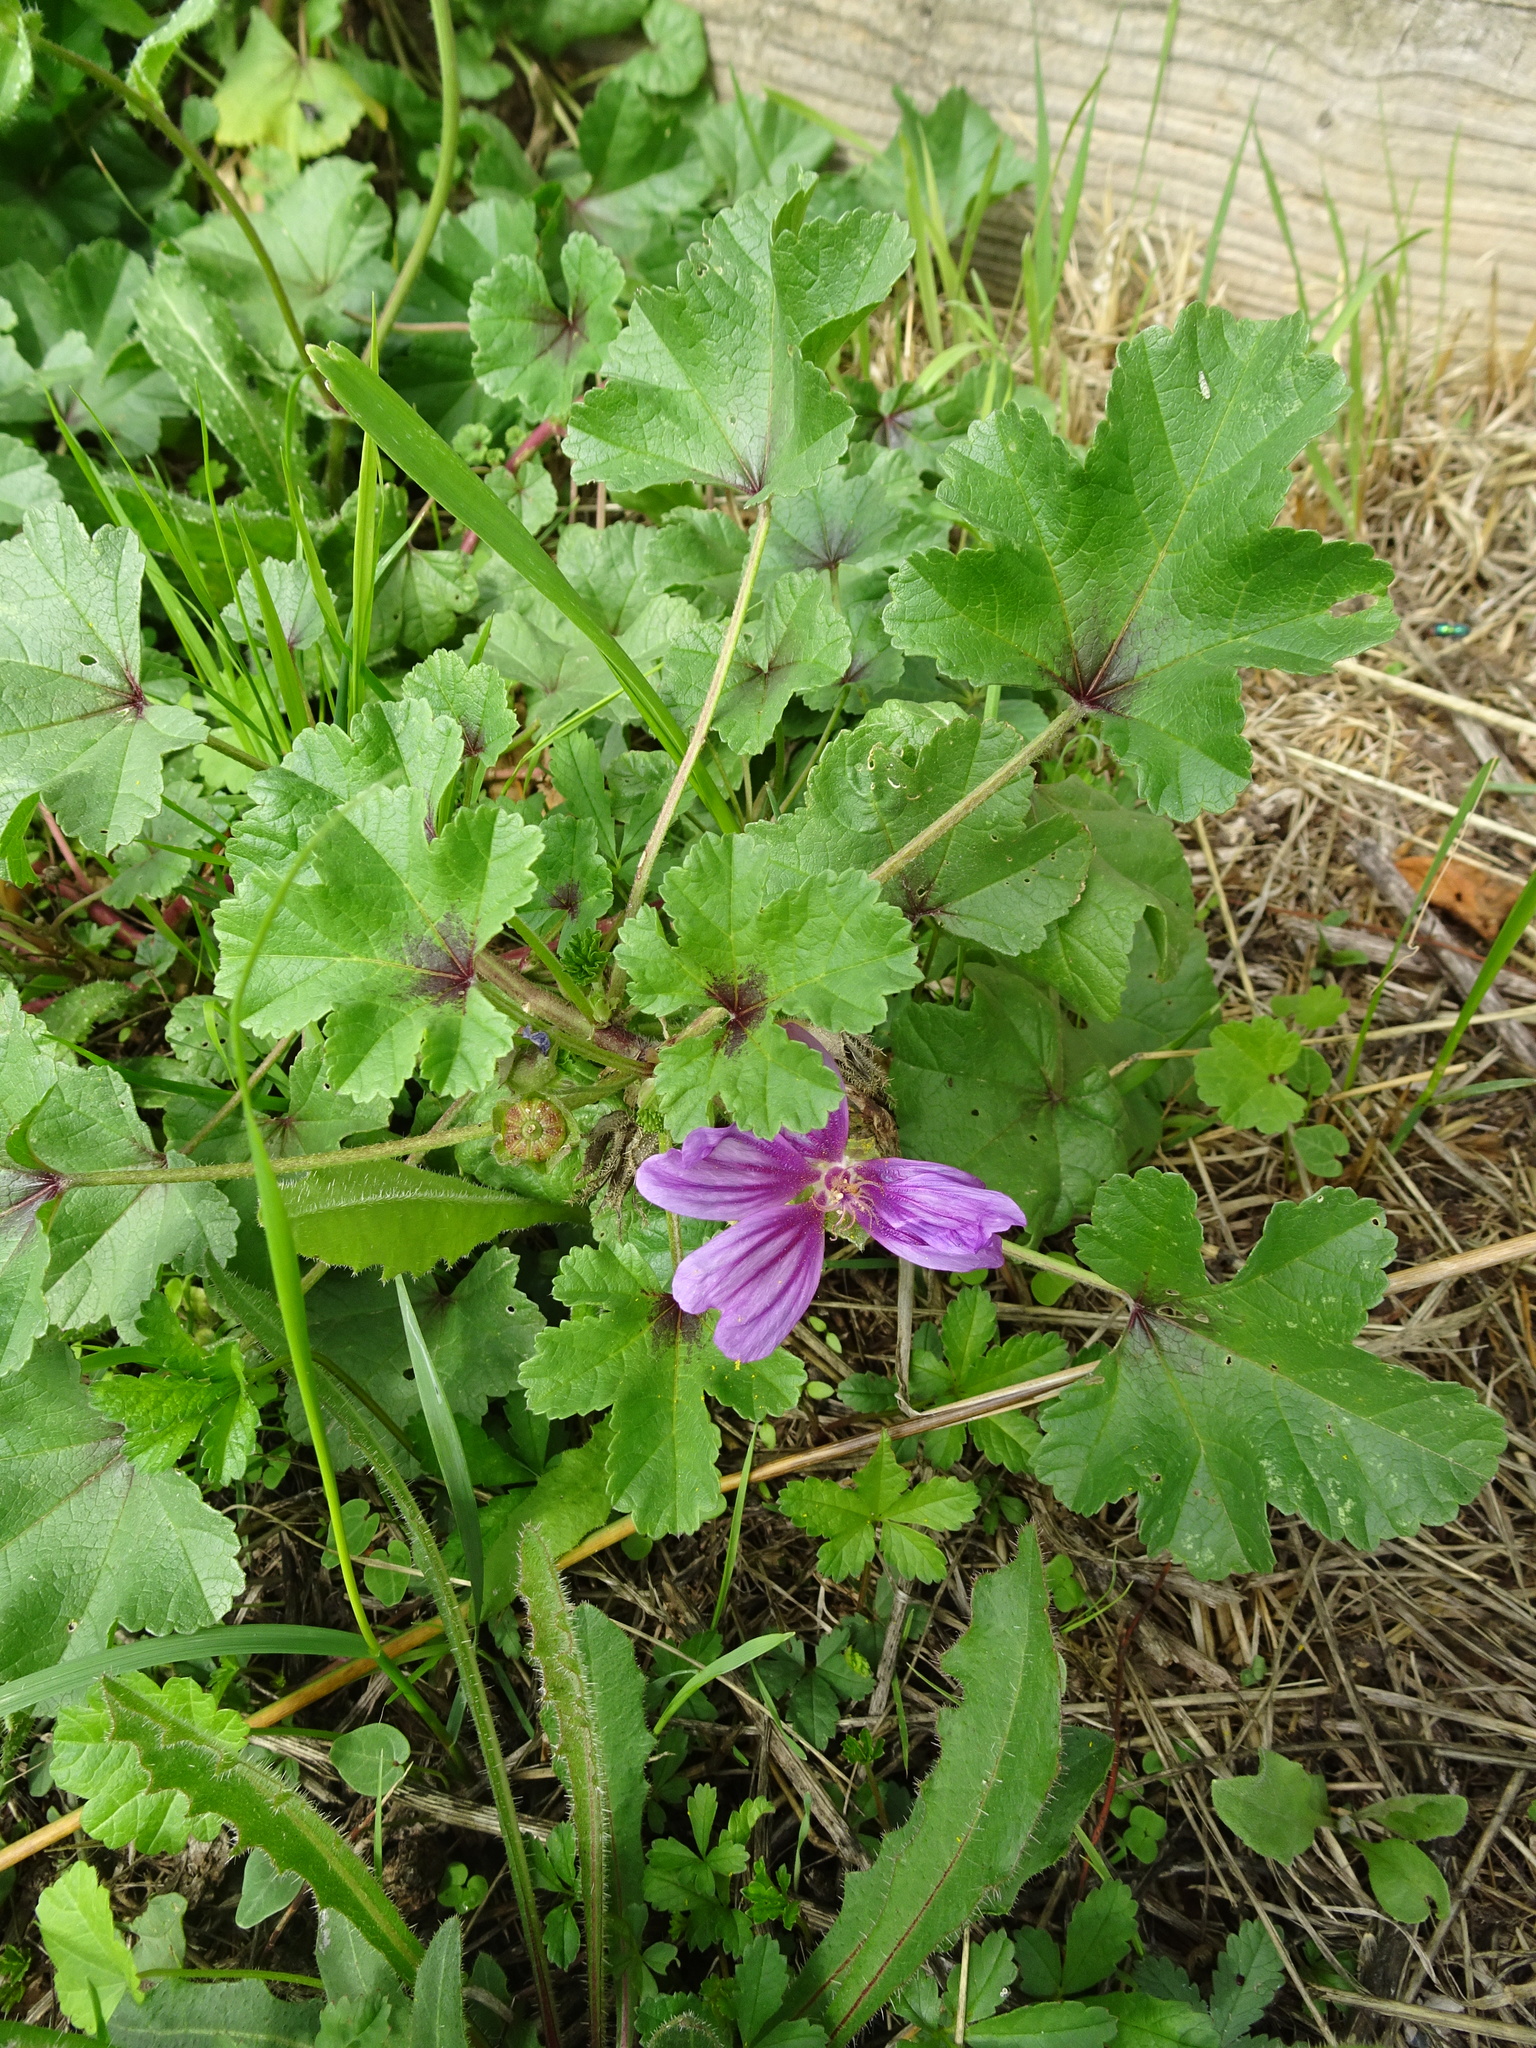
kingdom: Plantae
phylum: Tracheophyta
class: Magnoliopsida
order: Malvales
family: Malvaceae
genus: Malva
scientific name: Malva sylvestris
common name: Common mallow
